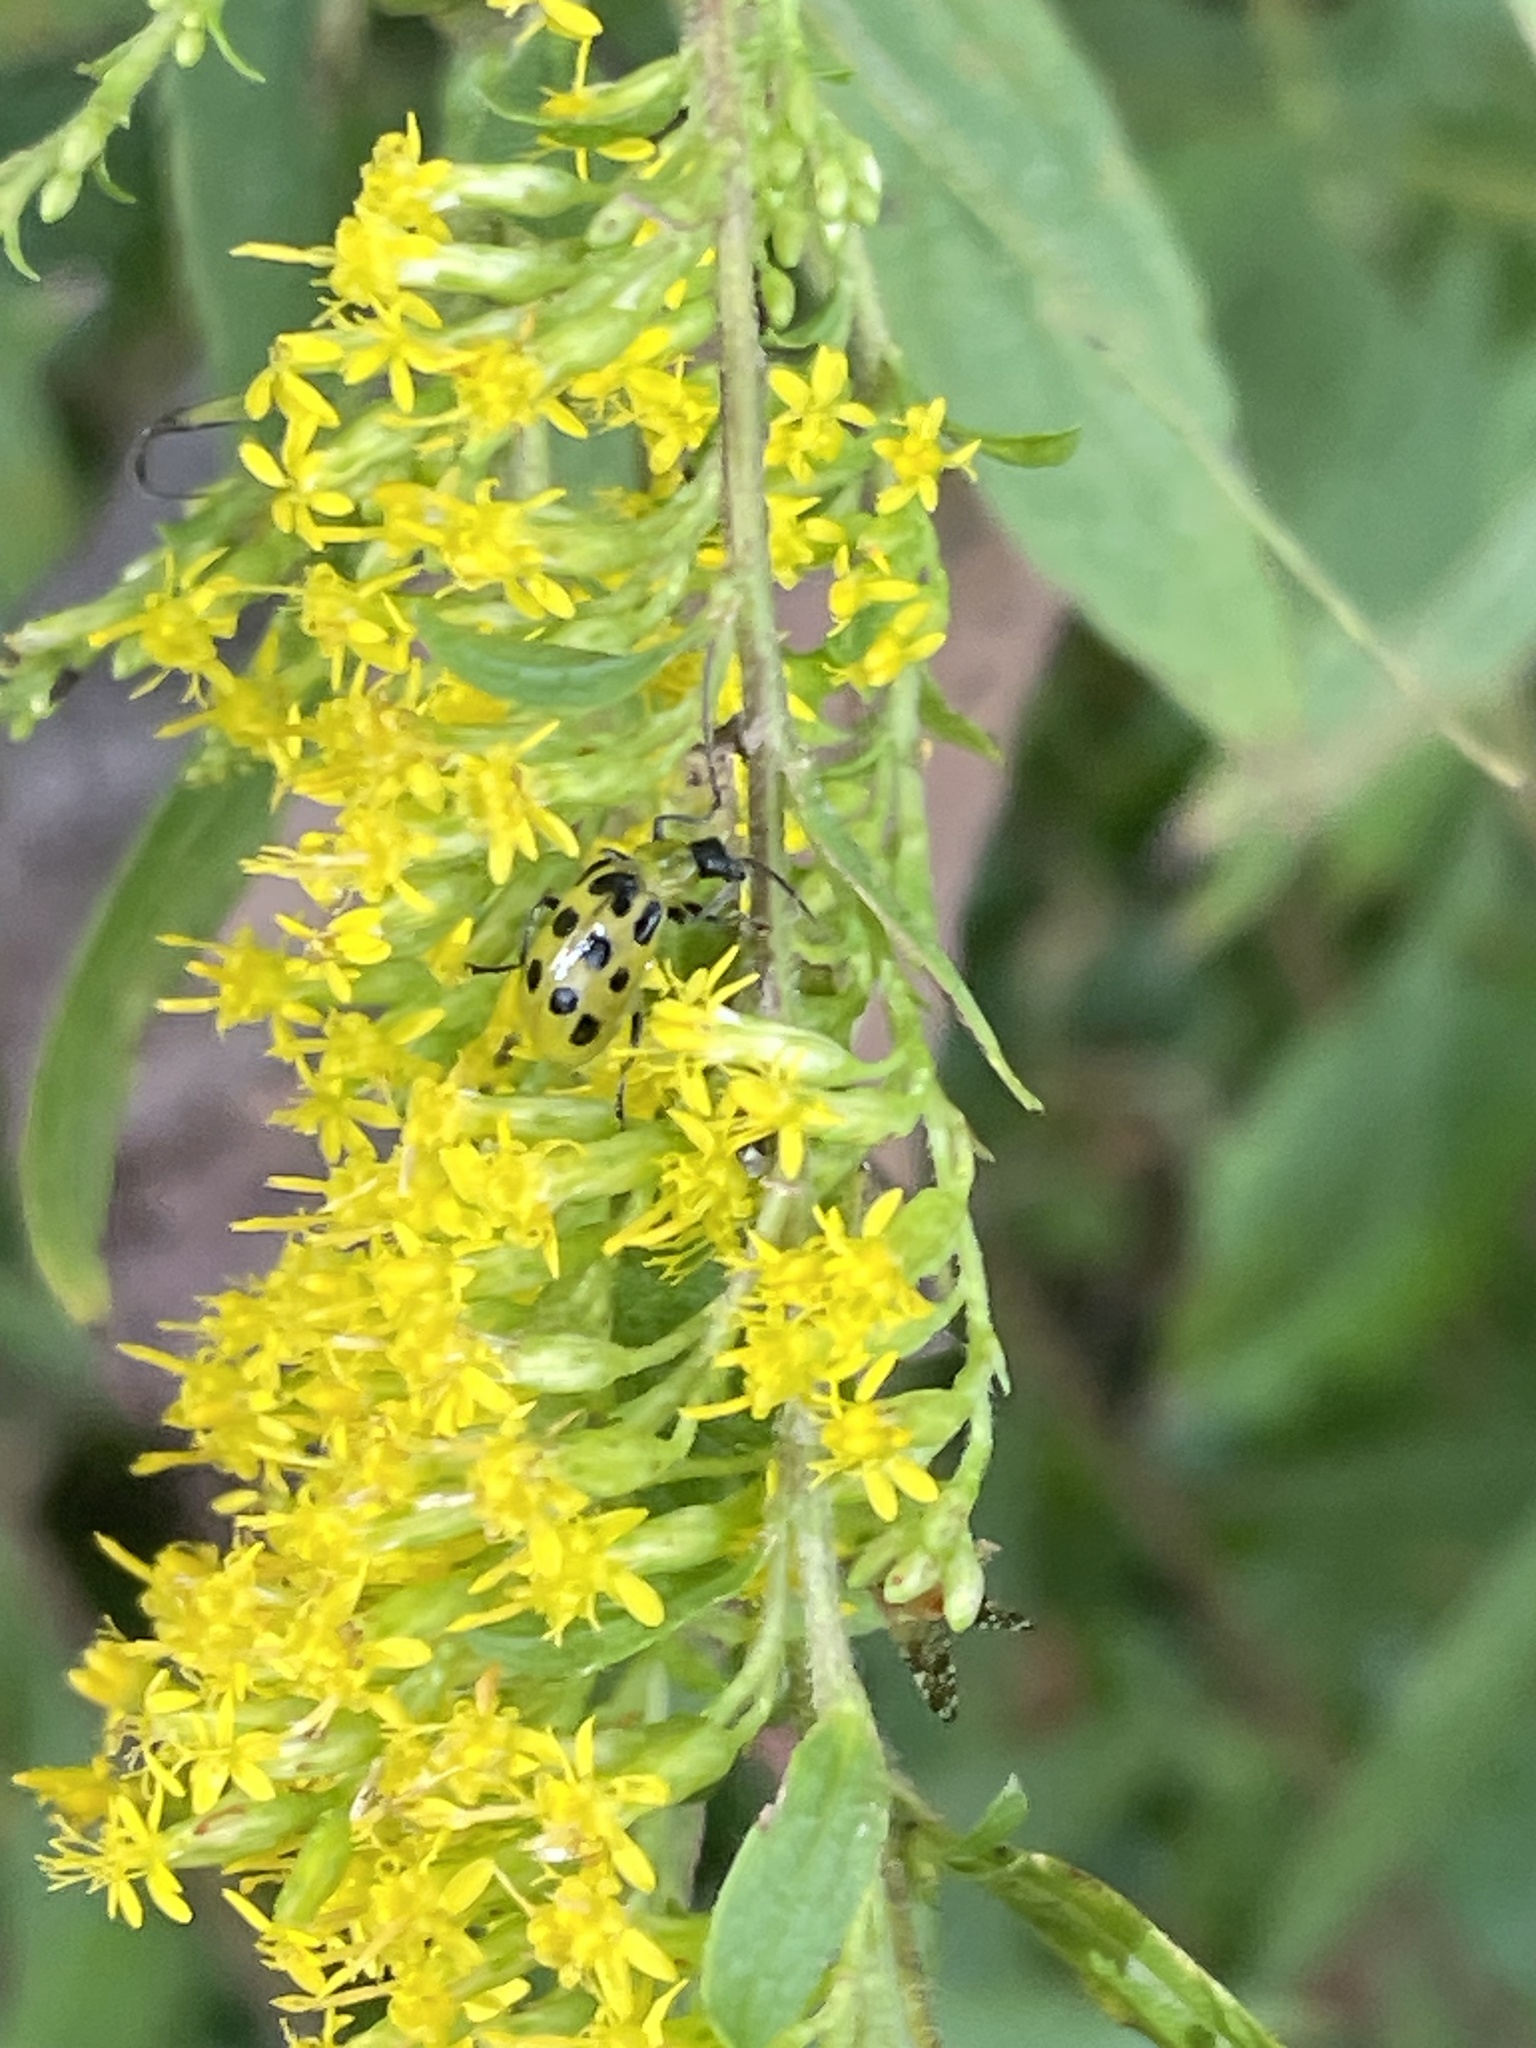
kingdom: Animalia
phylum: Arthropoda
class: Insecta
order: Coleoptera
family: Chrysomelidae
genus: Diabrotica
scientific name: Diabrotica undecimpunctata
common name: Spotted cucumber beetle
